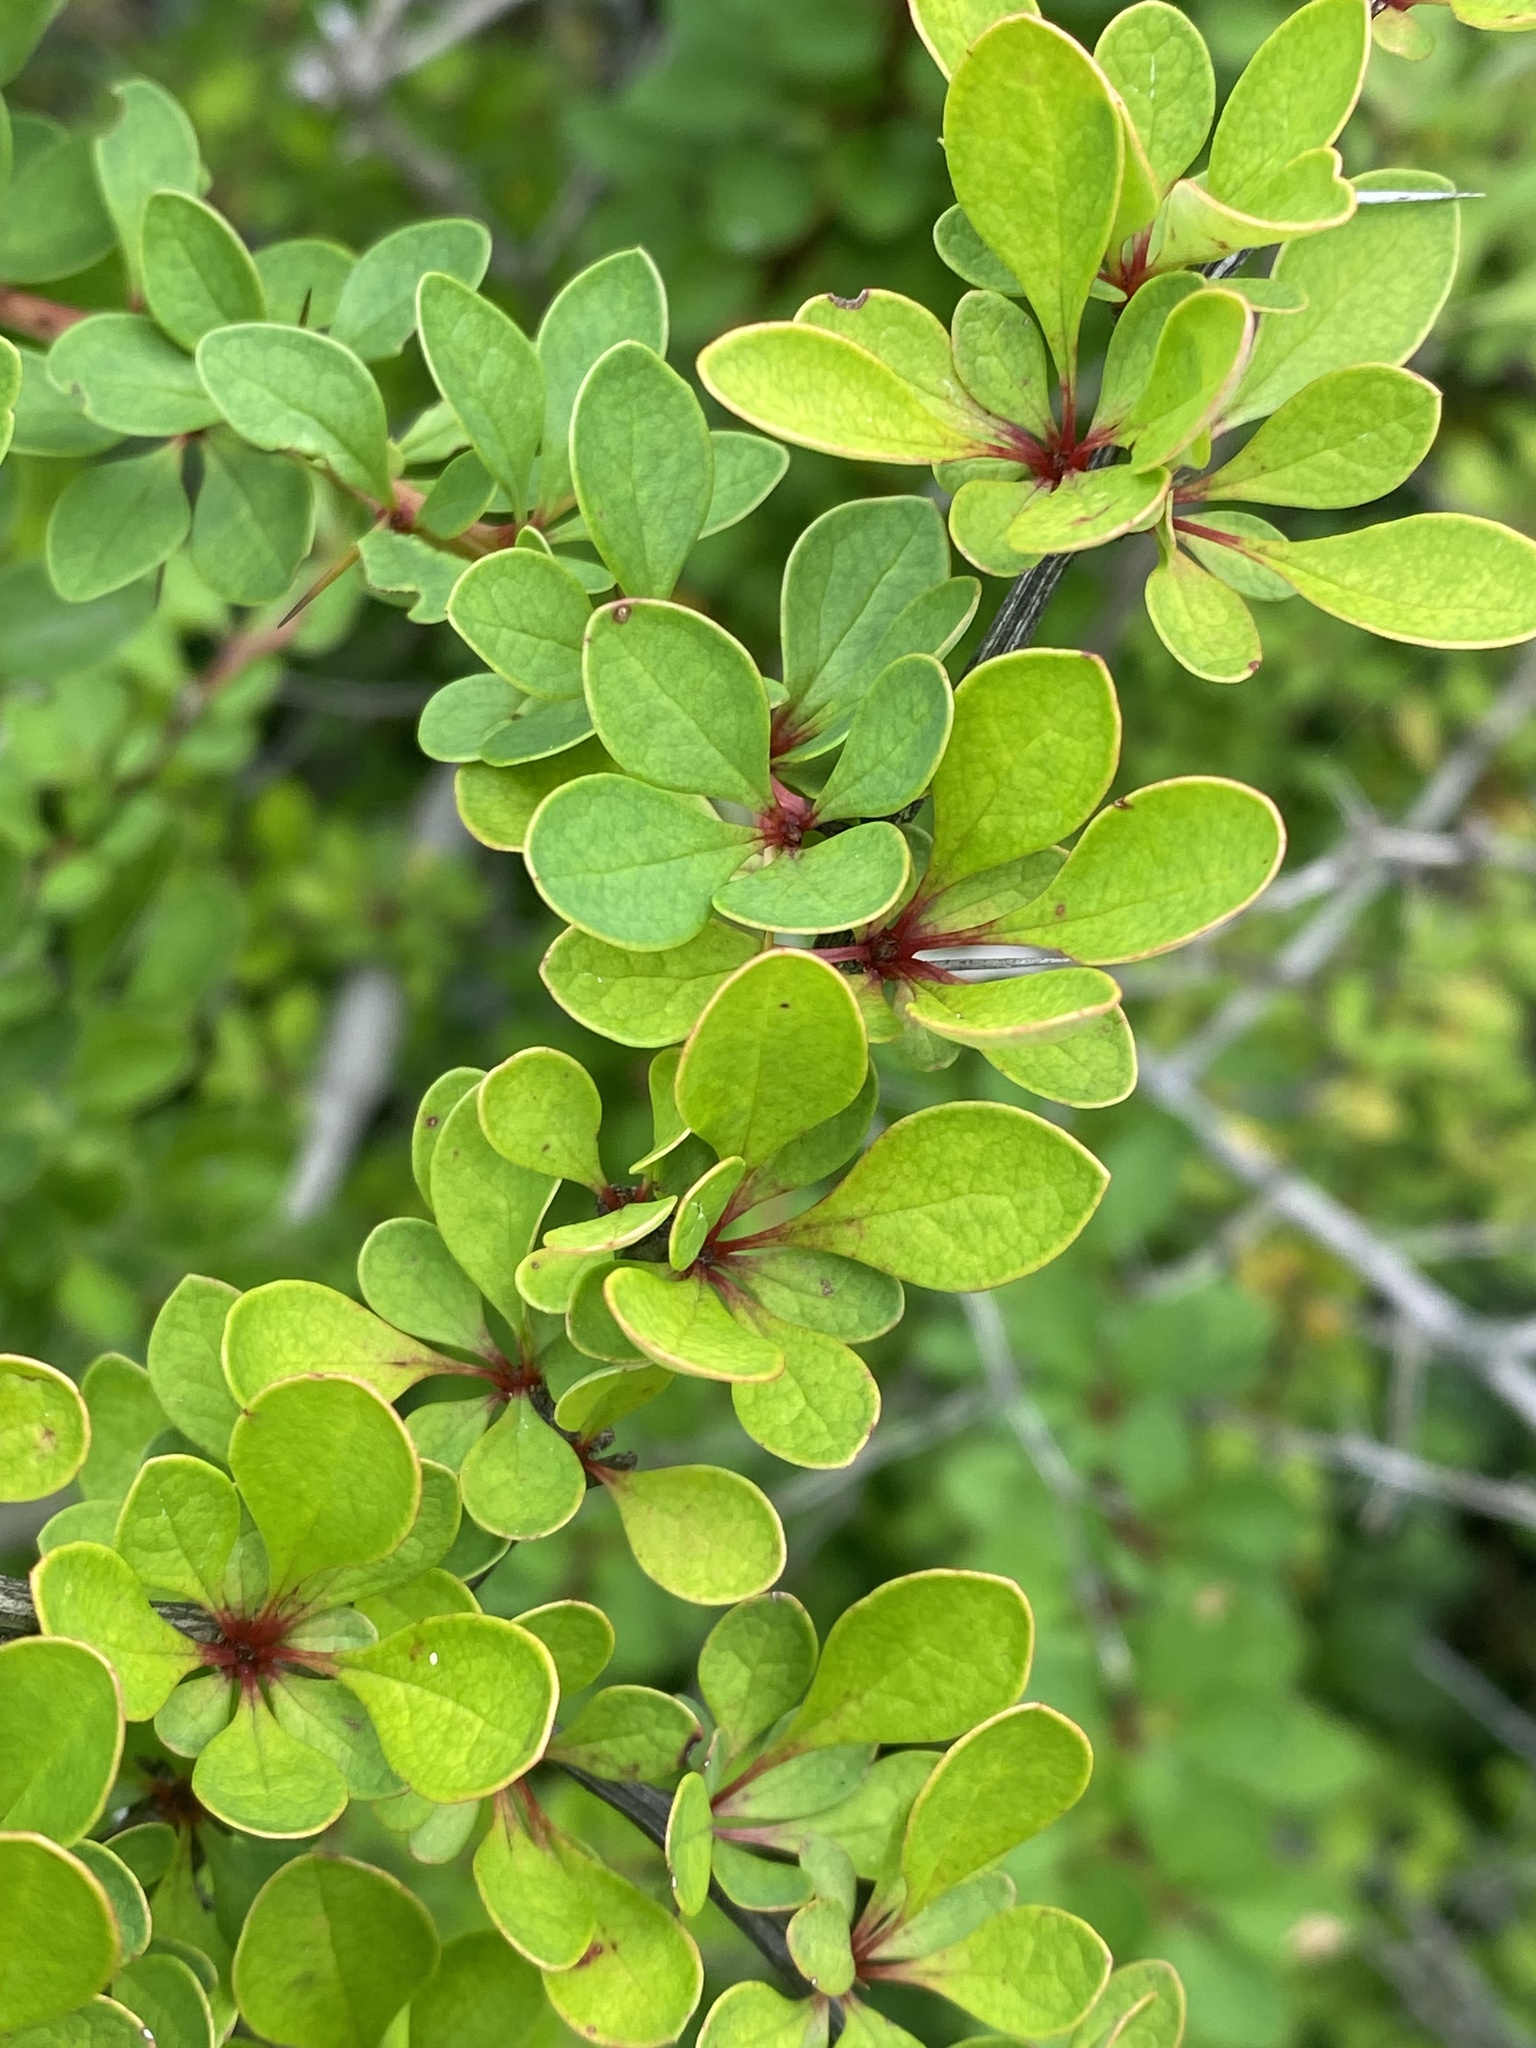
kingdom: Plantae
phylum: Tracheophyta
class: Magnoliopsida
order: Ranunculales
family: Berberidaceae
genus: Berberis
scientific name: Berberis thunbergii
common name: Japanese barberry
